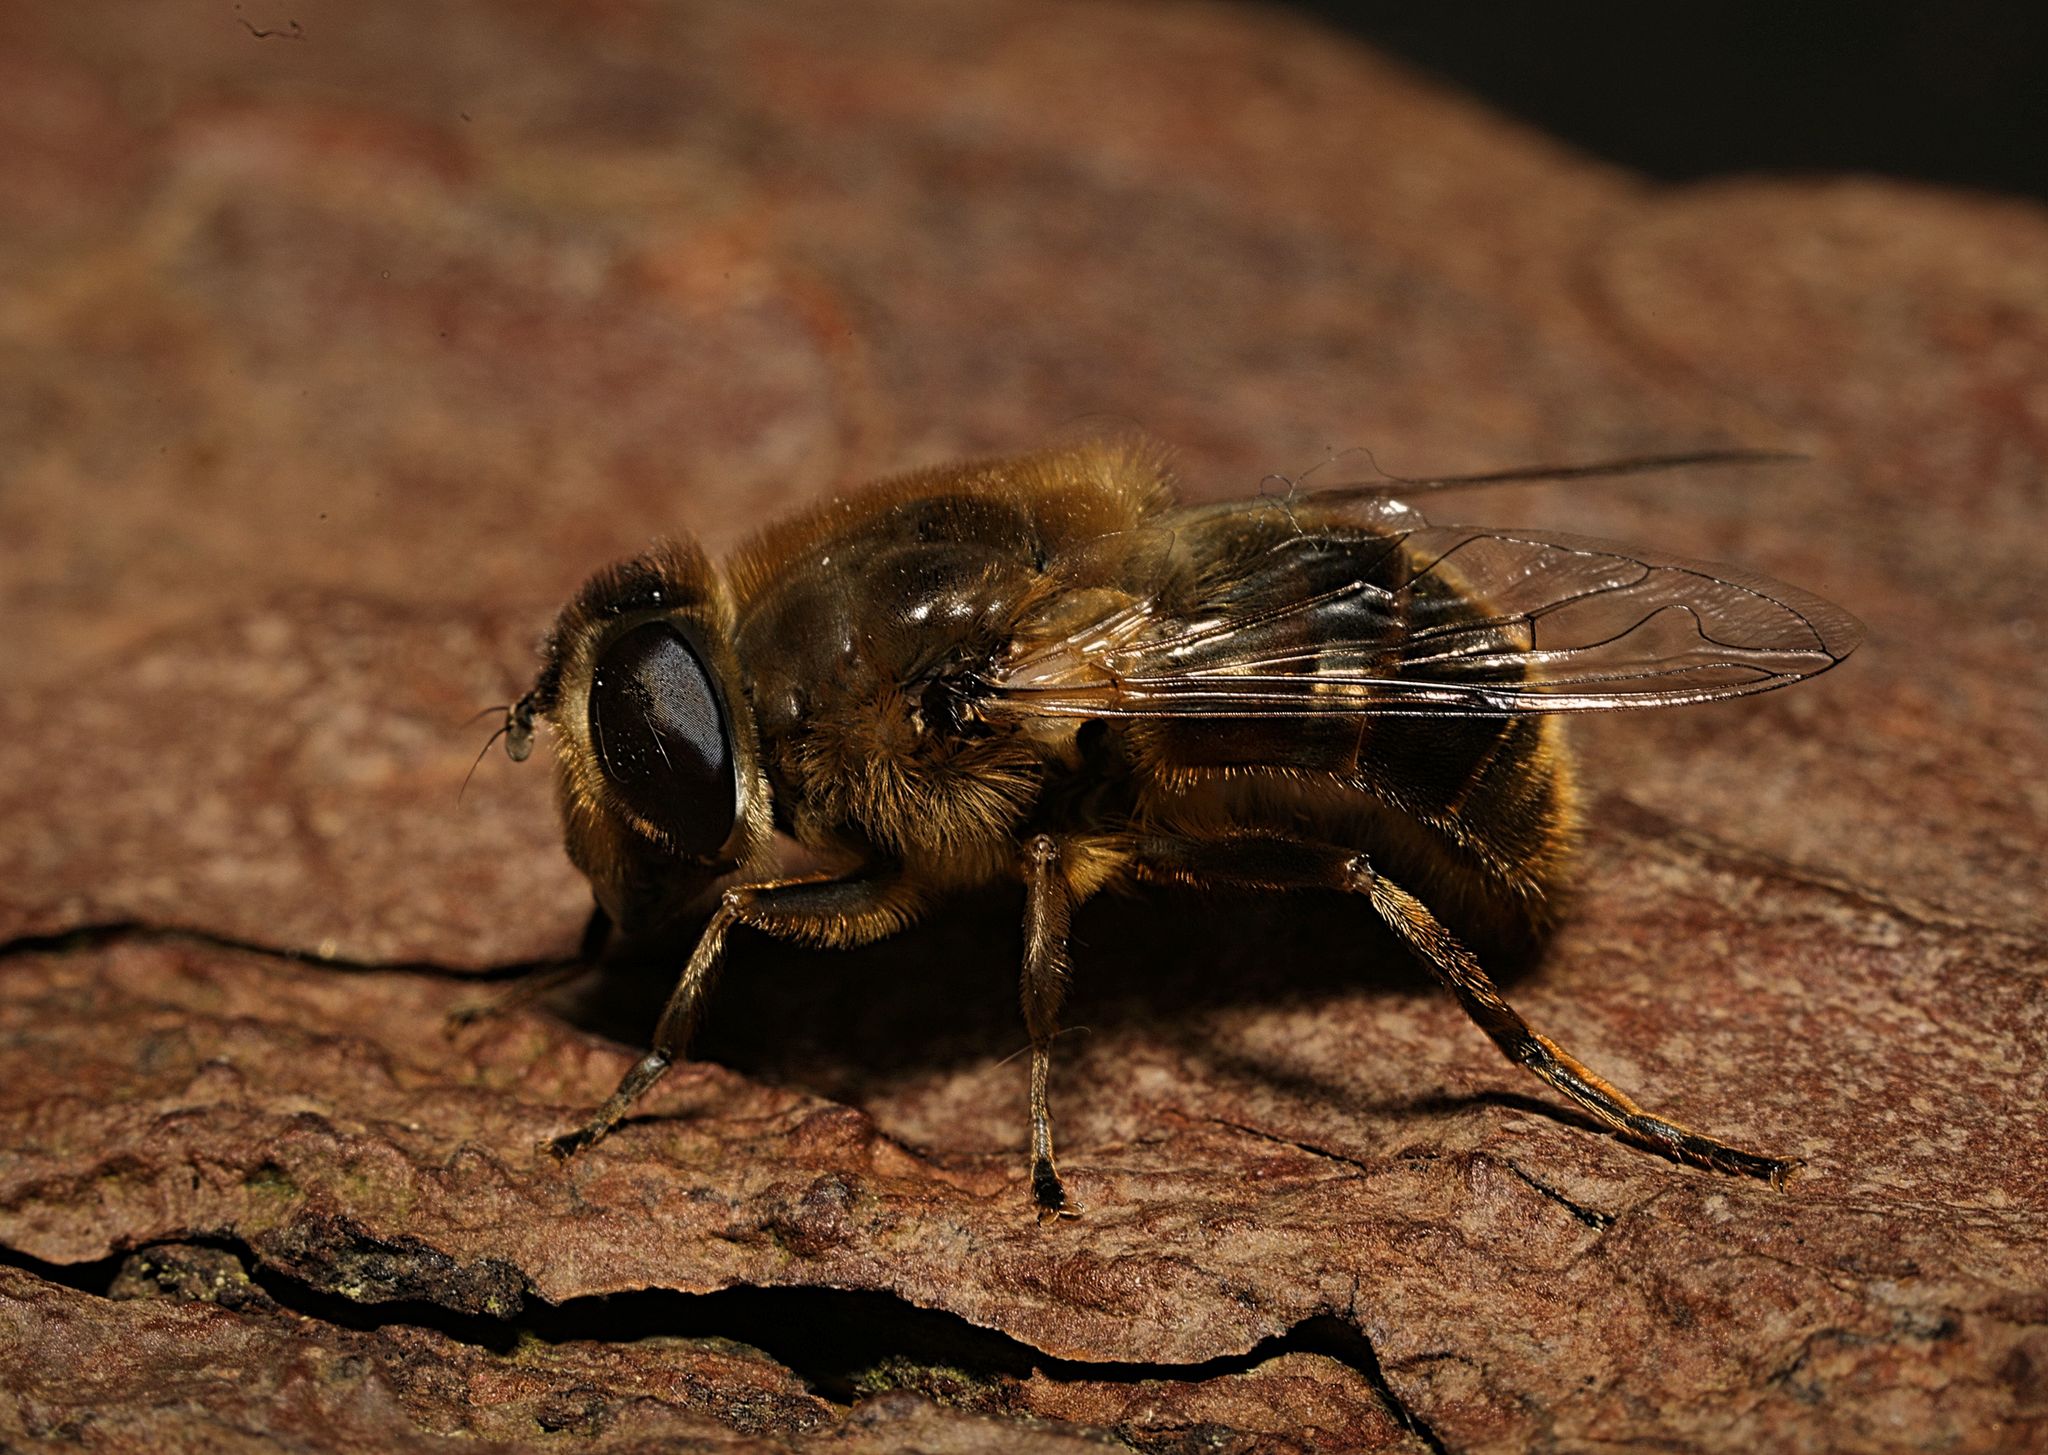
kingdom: Animalia
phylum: Arthropoda
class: Insecta
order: Diptera
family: Syrphidae
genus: Eristalis
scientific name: Eristalis tenax
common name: Drone fly
